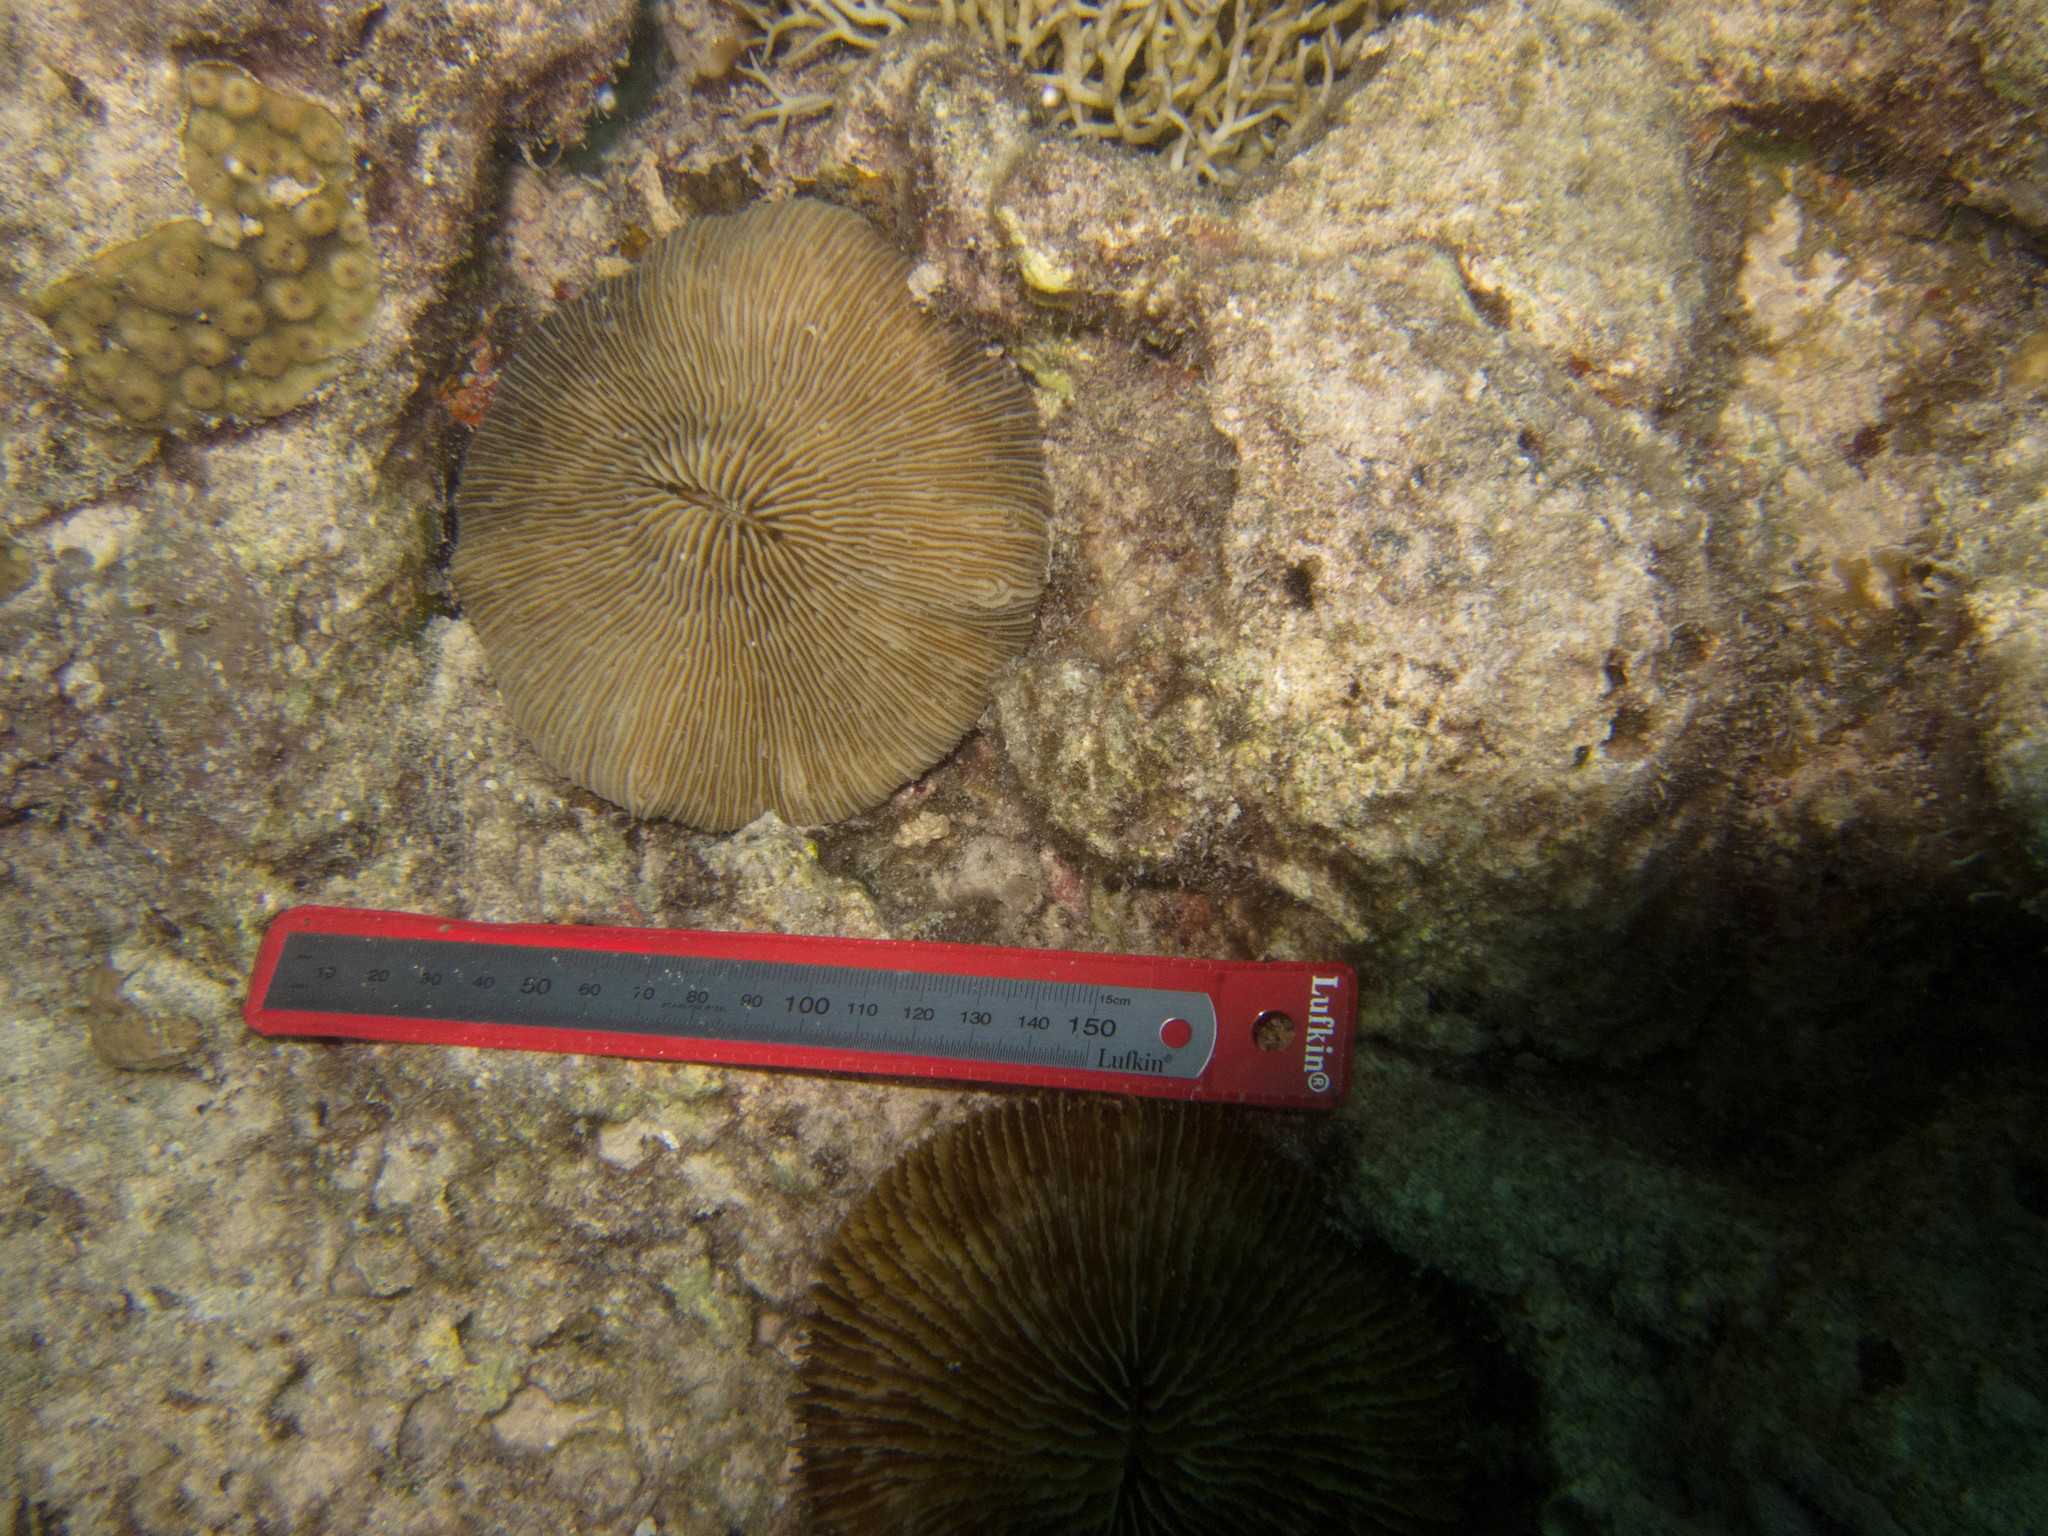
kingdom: Animalia
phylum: Cnidaria
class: Anthozoa
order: Scleractinia
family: Pocilloporidae
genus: Seriatopora
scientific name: Seriatopora hystrix
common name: Bush coral
